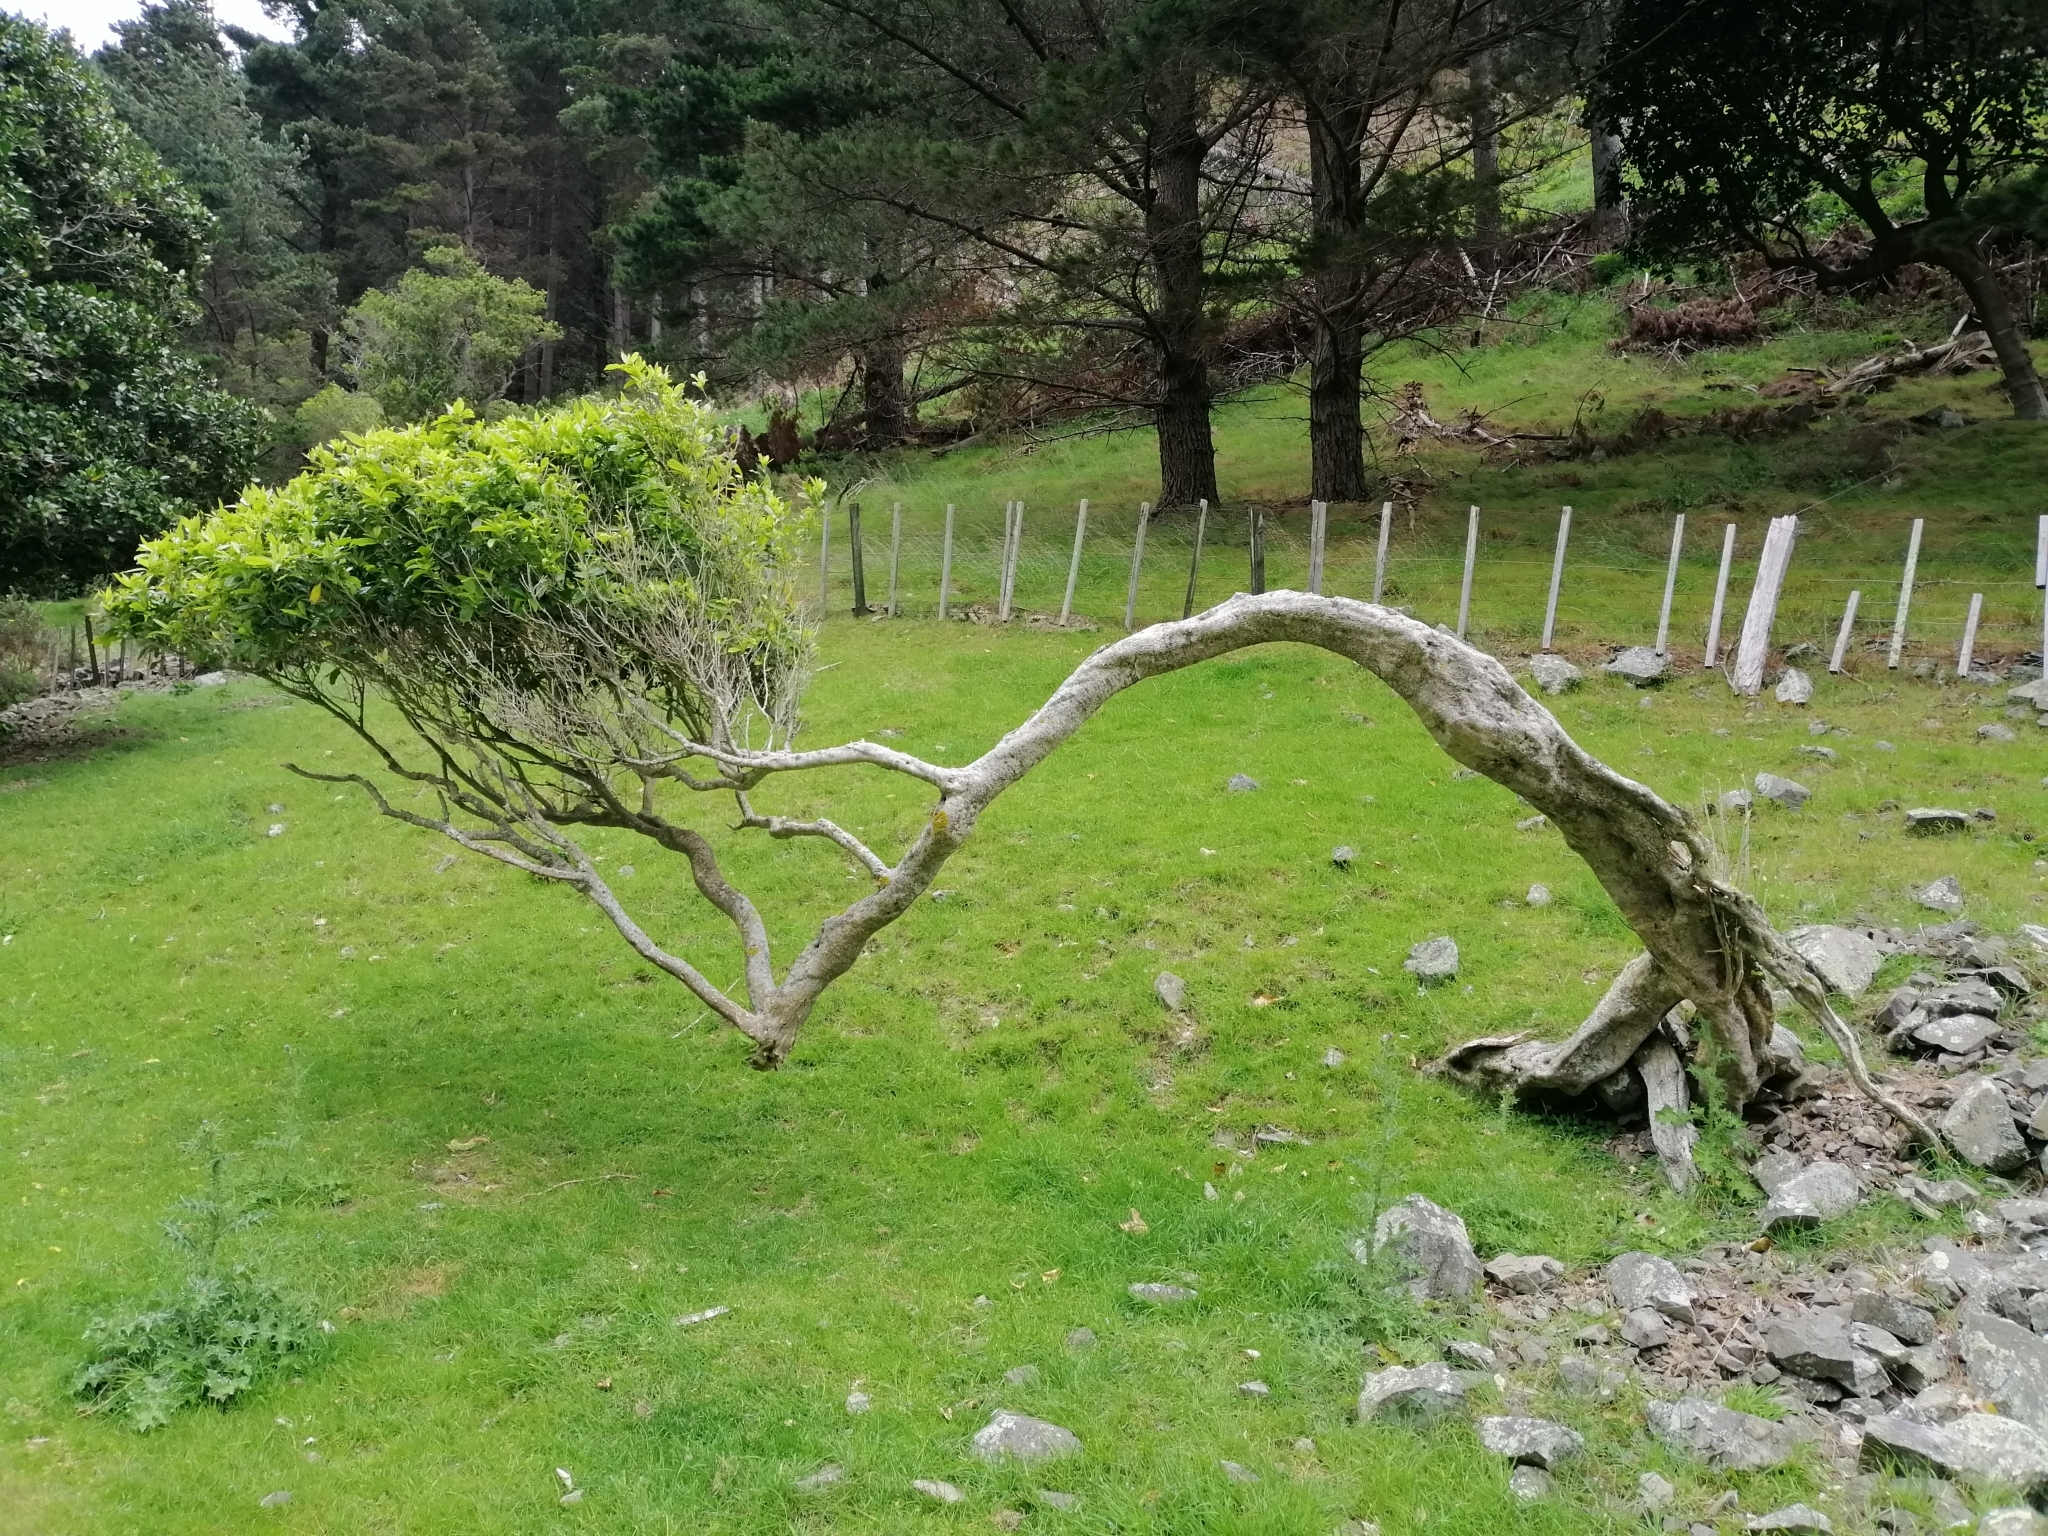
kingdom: Plantae
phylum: Tracheophyta
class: Magnoliopsida
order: Malpighiales
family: Violaceae
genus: Melicytus
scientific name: Melicytus ramiflorus
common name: Mahoe
